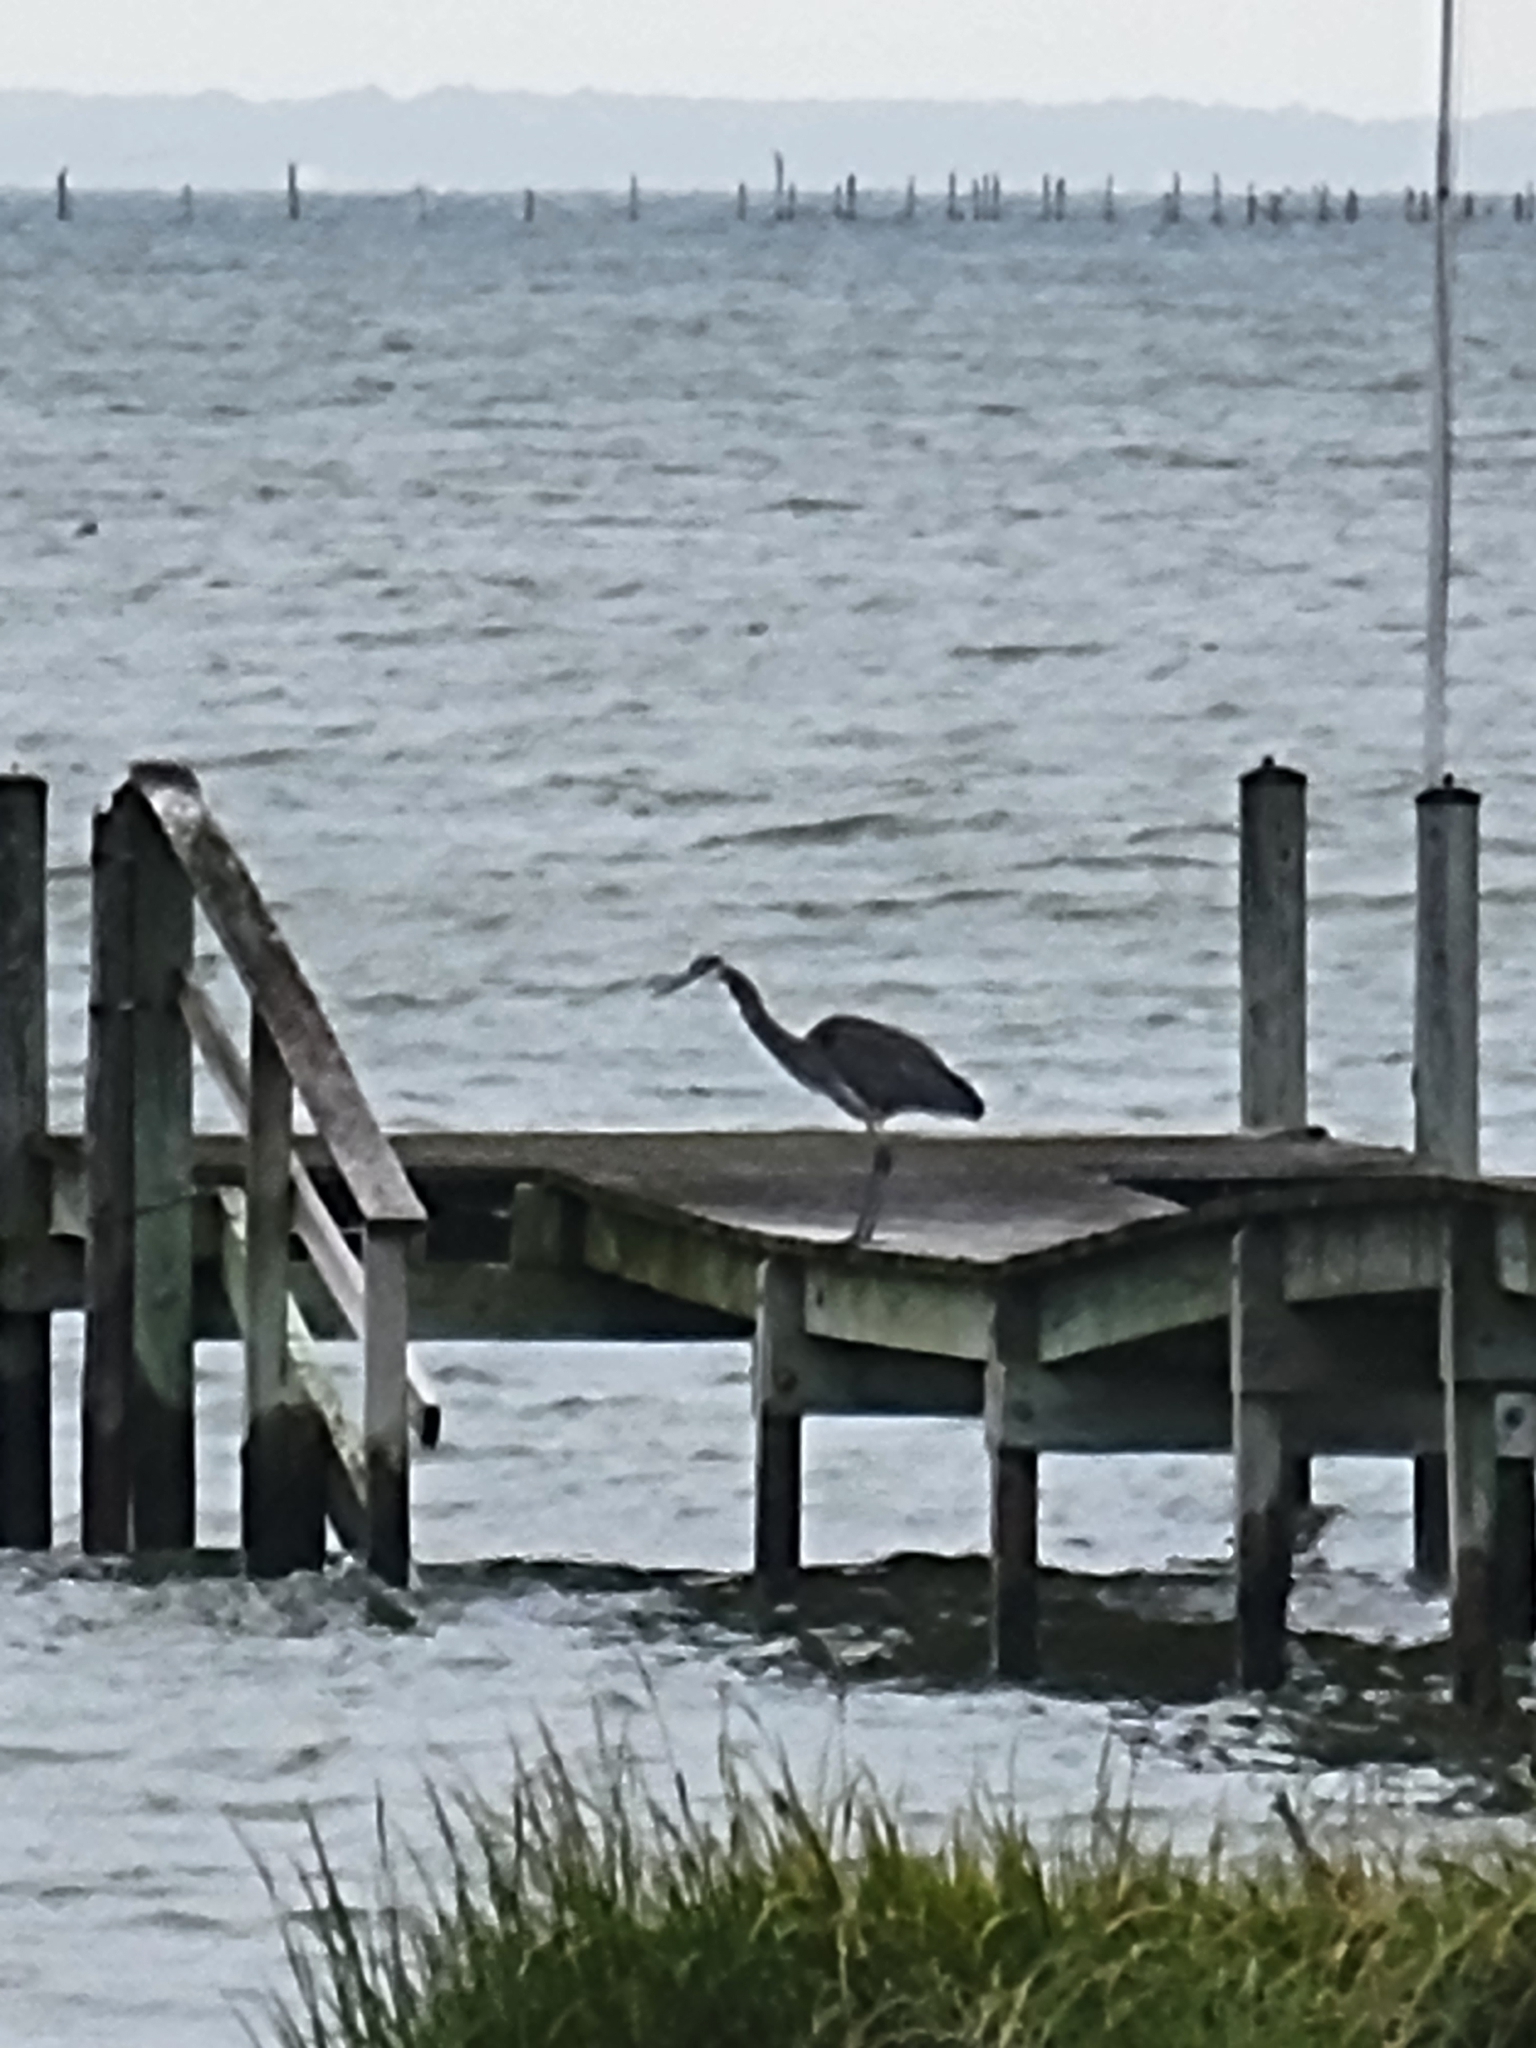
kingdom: Animalia
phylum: Chordata
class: Aves
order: Pelecaniformes
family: Ardeidae
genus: Ardea
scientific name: Ardea herodias
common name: Great blue heron
